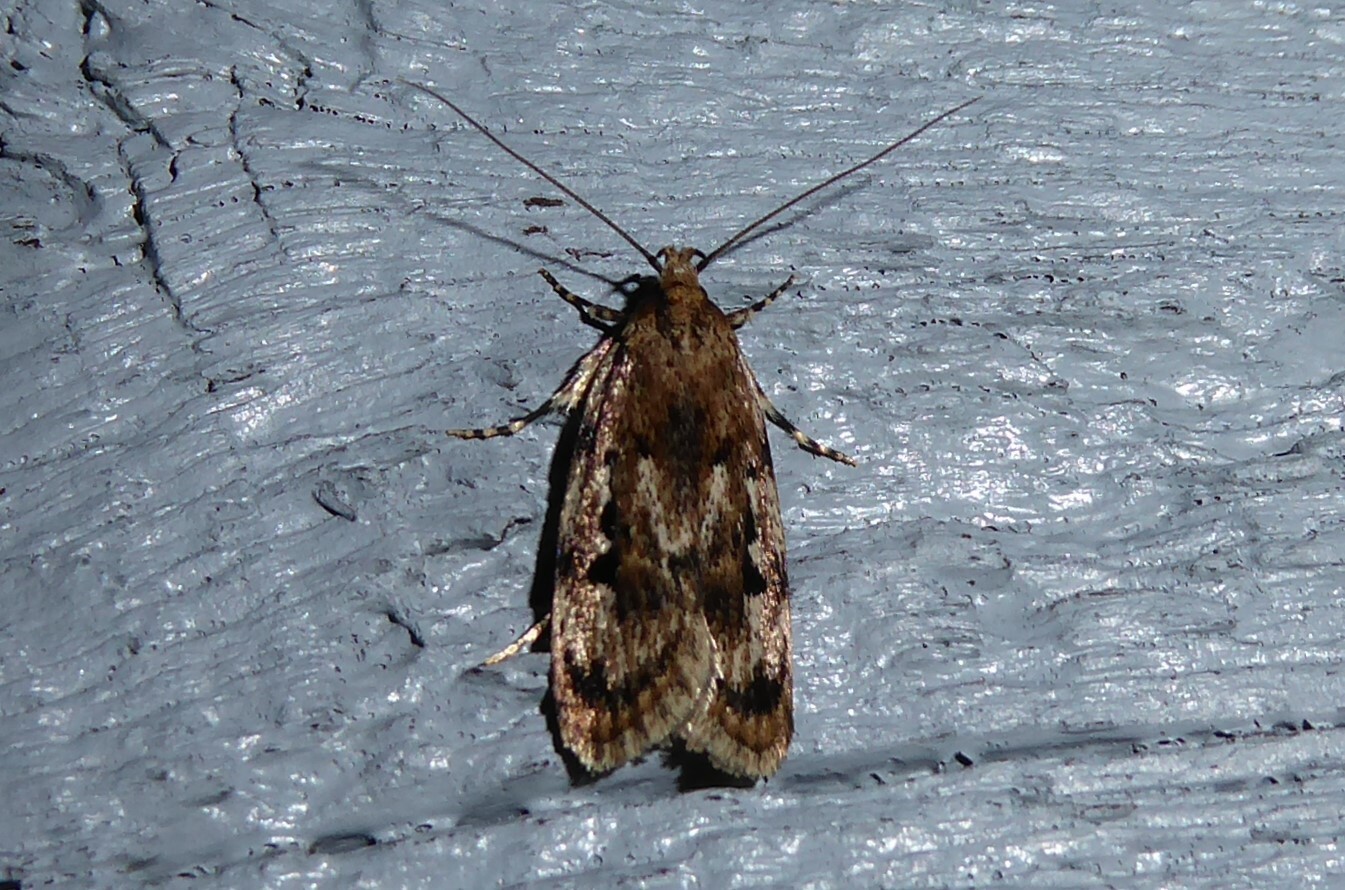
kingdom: Animalia
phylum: Arthropoda
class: Insecta
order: Lepidoptera
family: Oecophoridae
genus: Barea
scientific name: Barea exarcha
